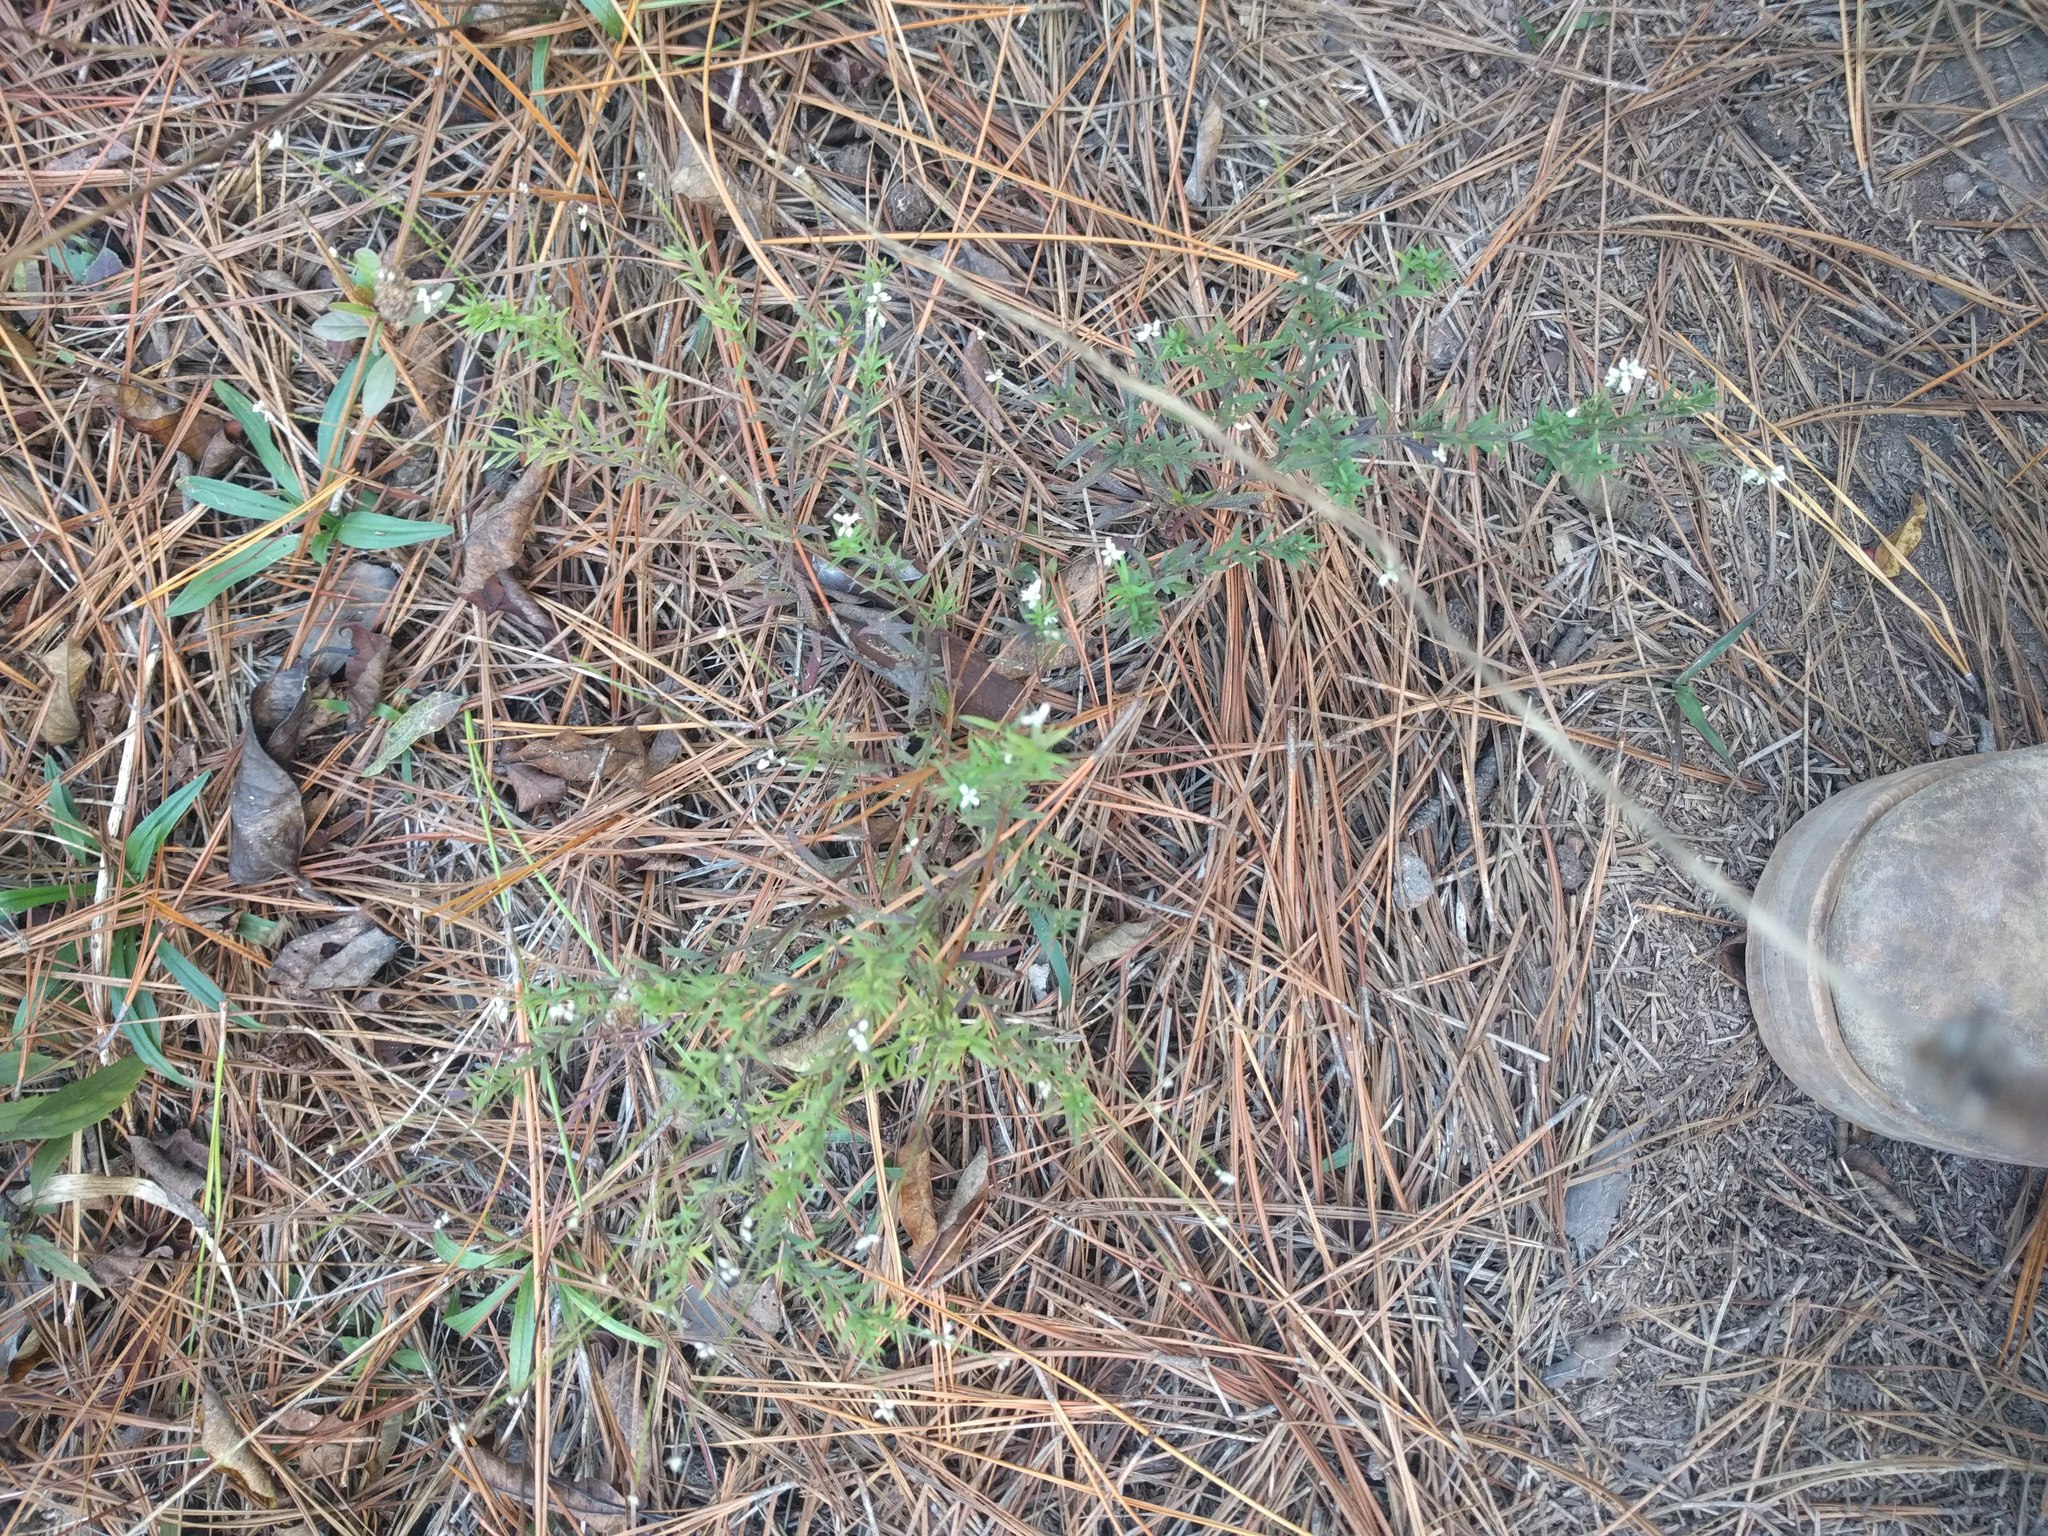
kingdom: Plantae
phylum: Tracheophyta
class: Magnoliopsida
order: Fabales
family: Polygalaceae
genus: Polygala
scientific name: Polygala paniculata
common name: Orosne
